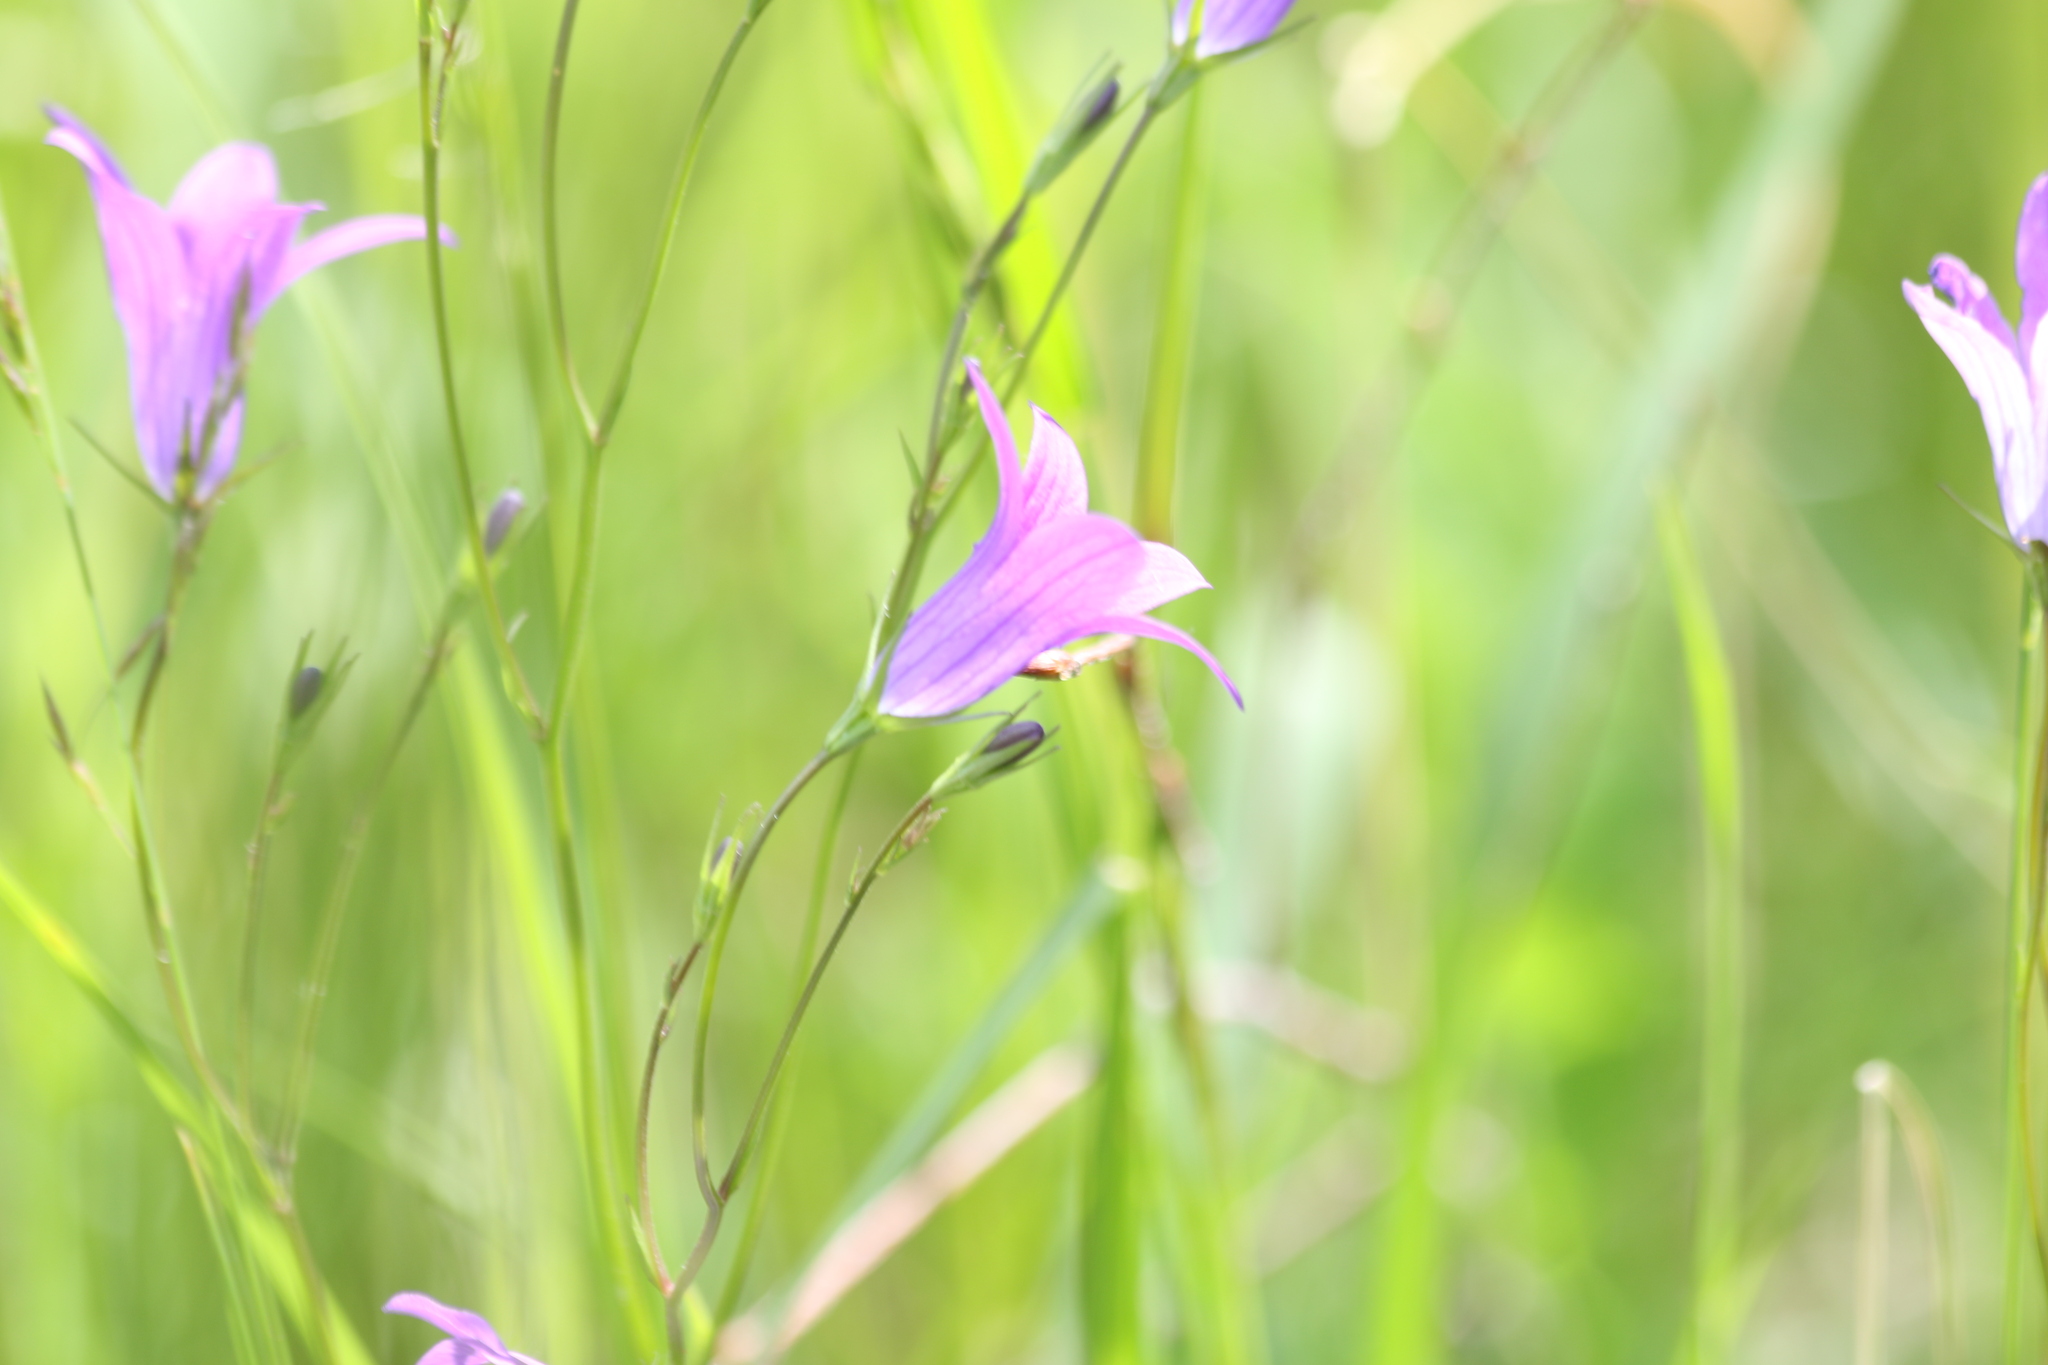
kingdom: Plantae
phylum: Tracheophyta
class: Magnoliopsida
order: Asterales
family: Campanulaceae
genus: Campanula
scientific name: Campanula patula
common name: Spreading bellflower
